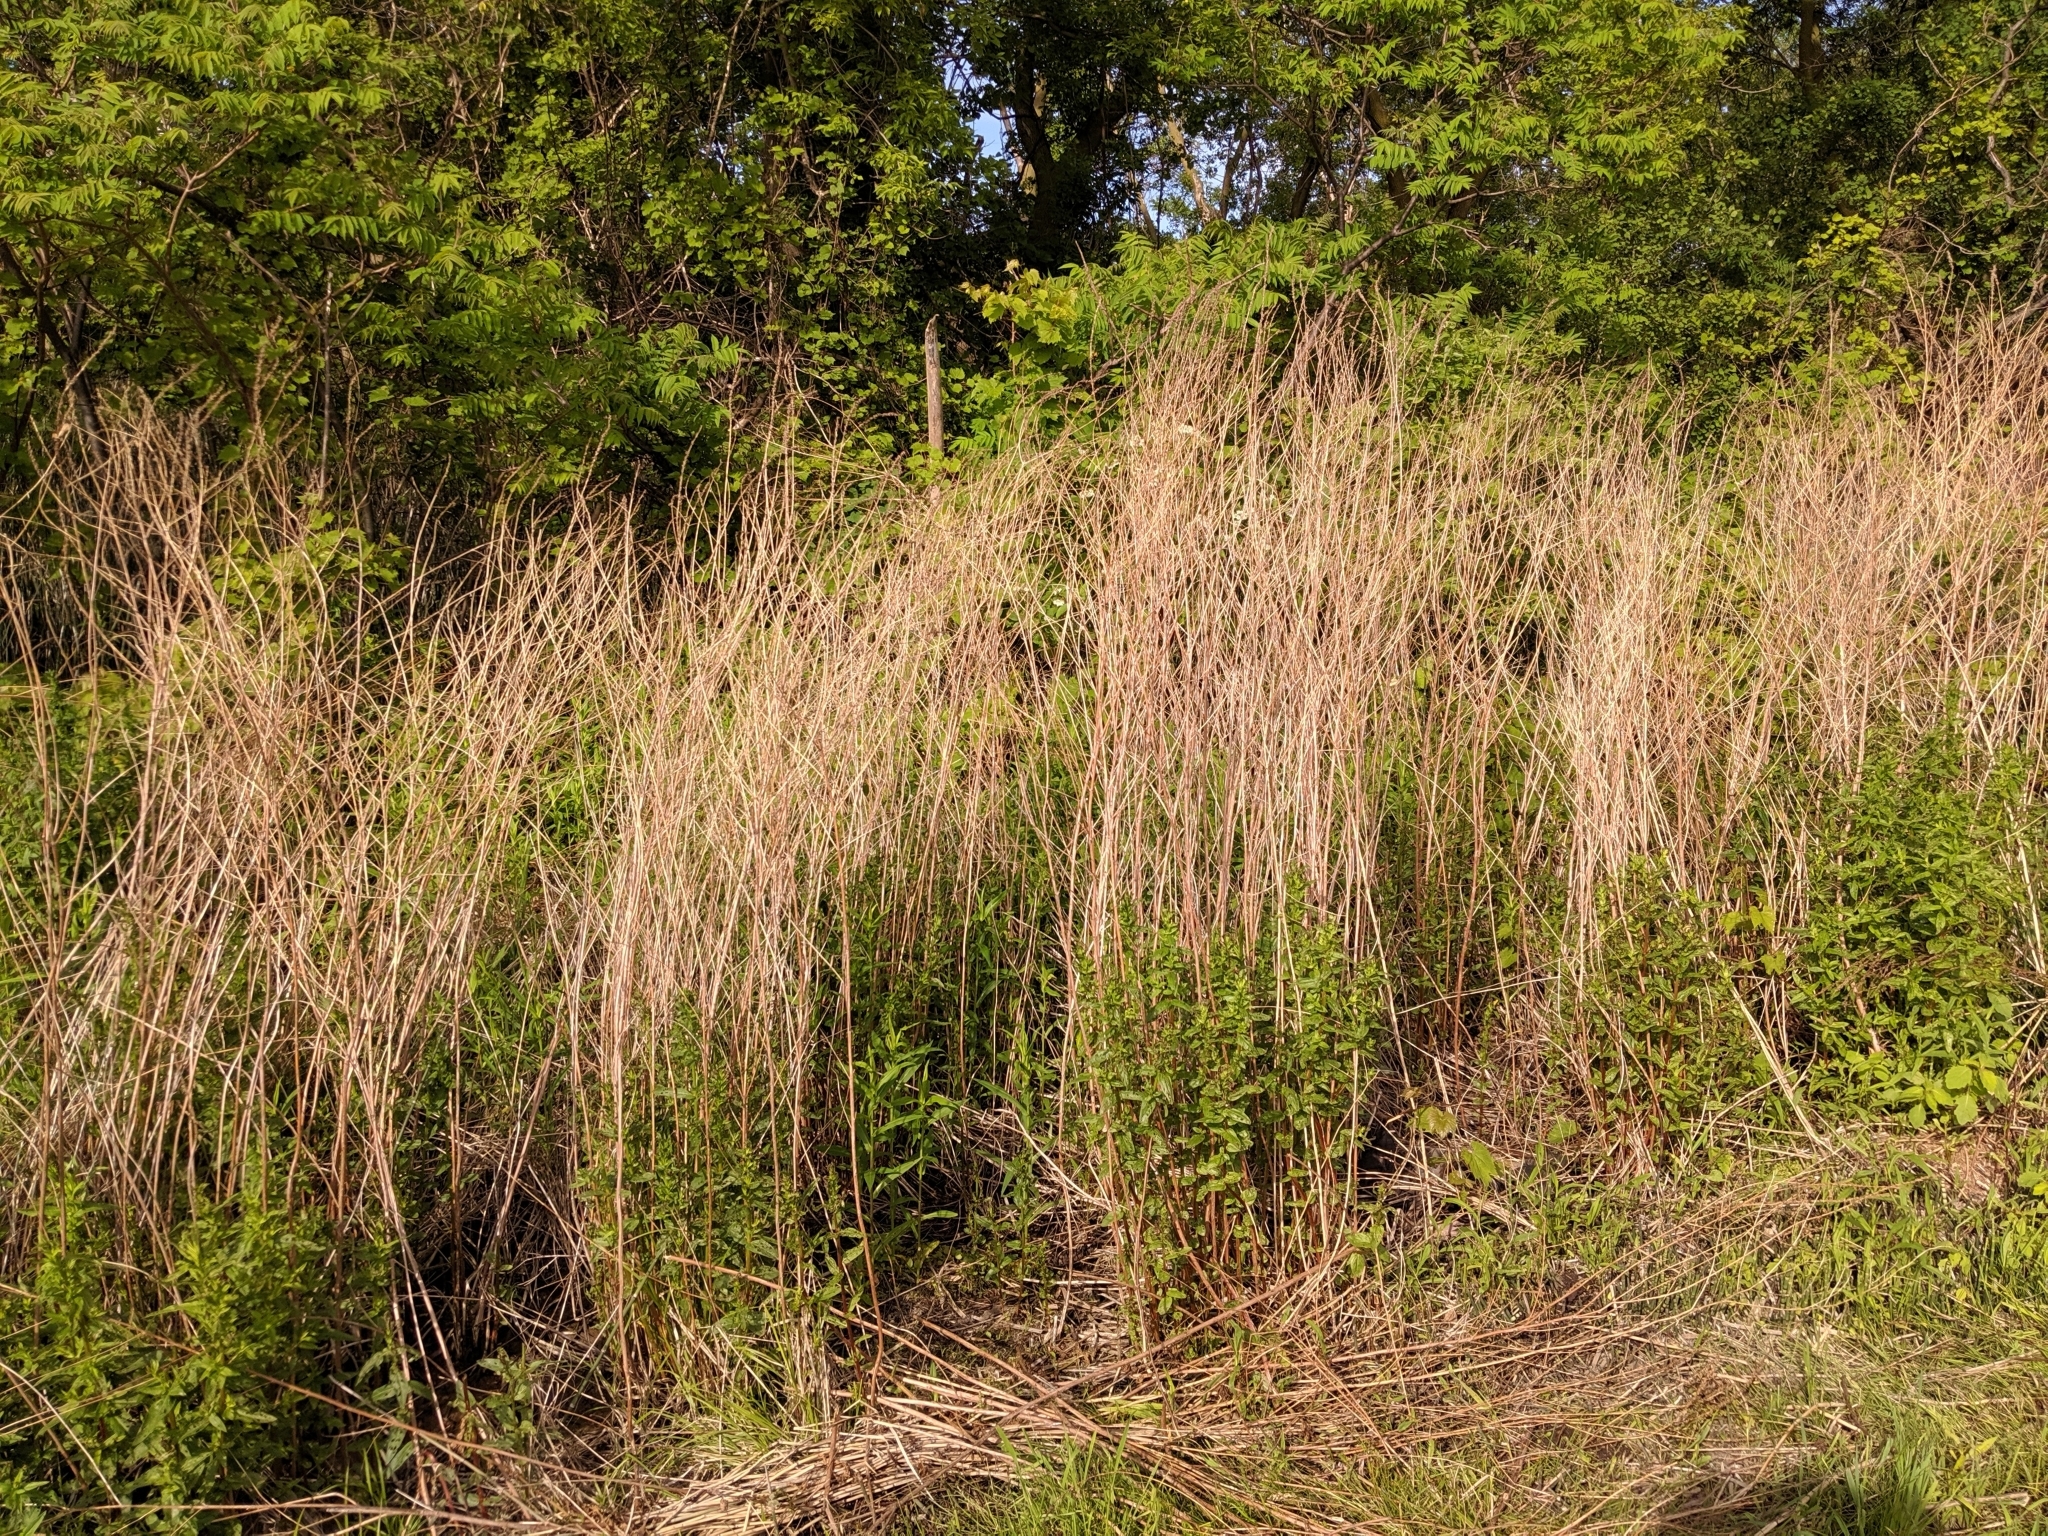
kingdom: Plantae
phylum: Tracheophyta
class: Magnoliopsida
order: Myrtales
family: Lythraceae
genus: Lythrum
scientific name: Lythrum salicaria
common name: Purple loosestrife
